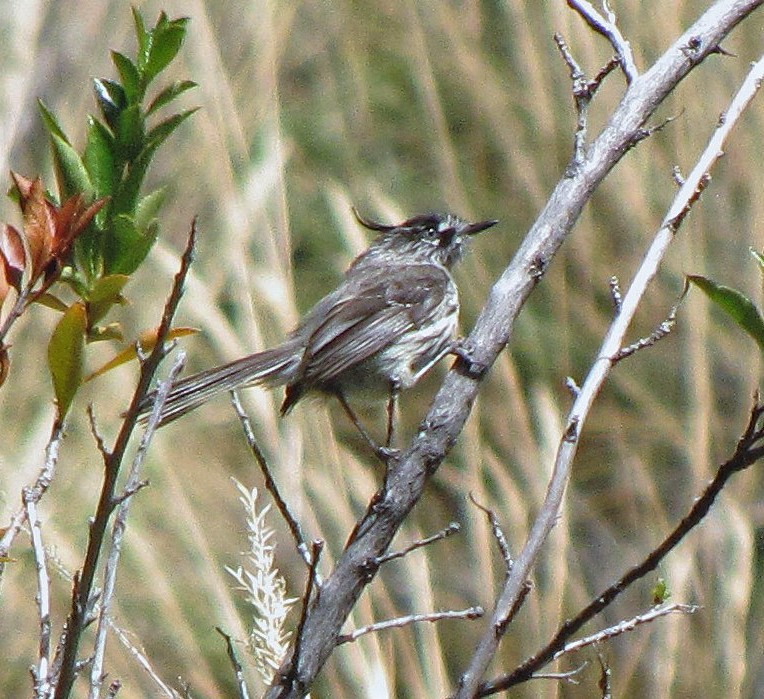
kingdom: Animalia
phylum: Chordata
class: Aves
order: Passeriformes
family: Tyrannidae
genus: Anairetes
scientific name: Anairetes parulus
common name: Tufted tit-tyrant
